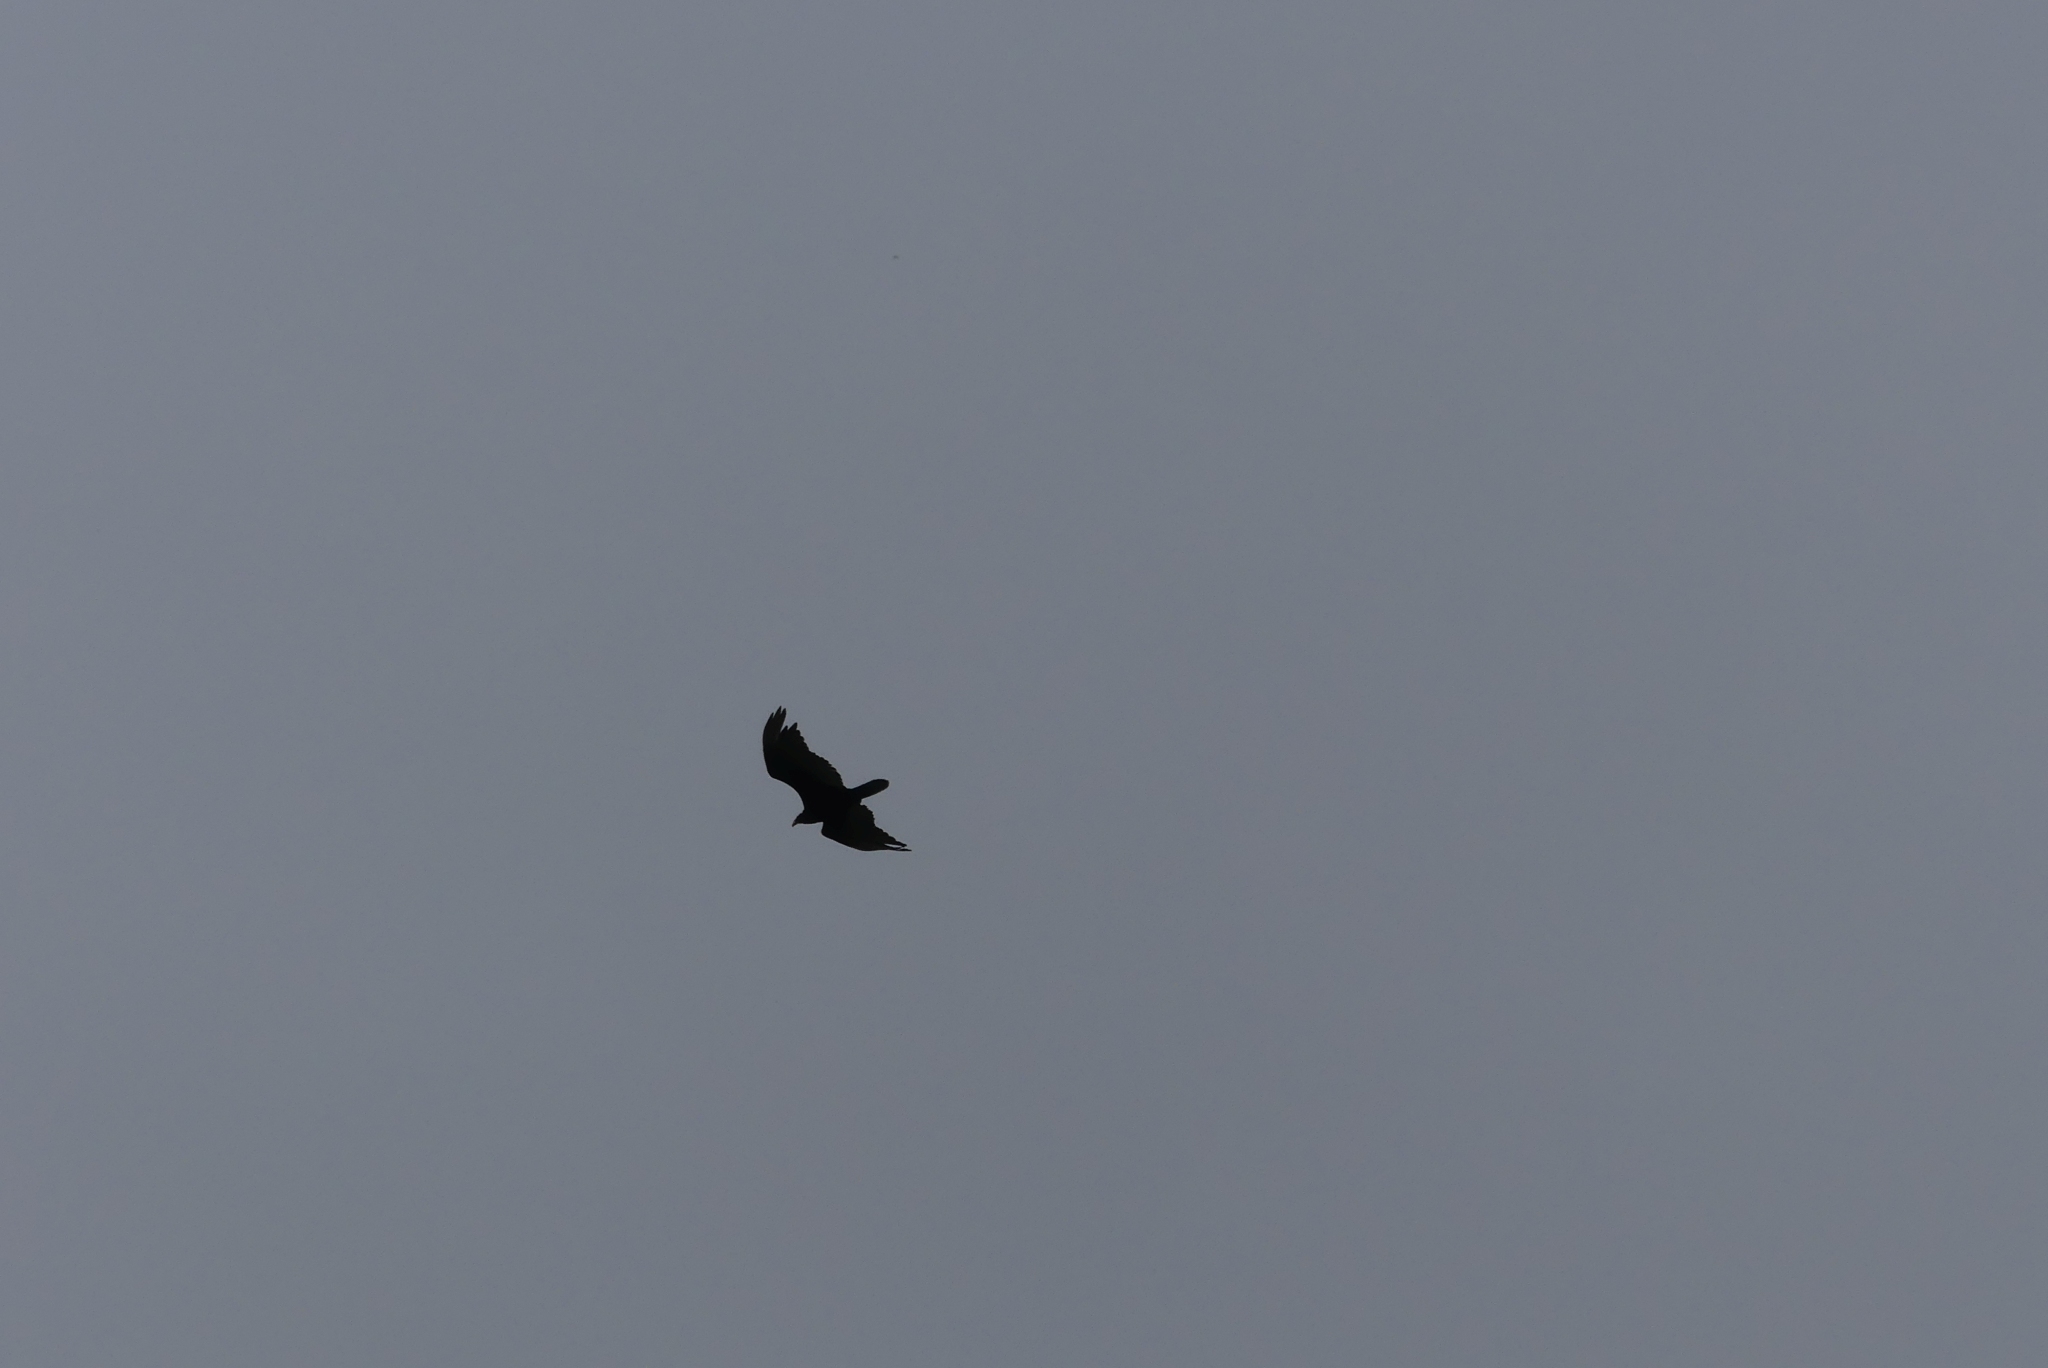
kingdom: Animalia
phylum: Chordata
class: Aves
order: Accipitriformes
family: Cathartidae
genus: Cathartes
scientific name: Cathartes aura
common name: Turkey vulture
